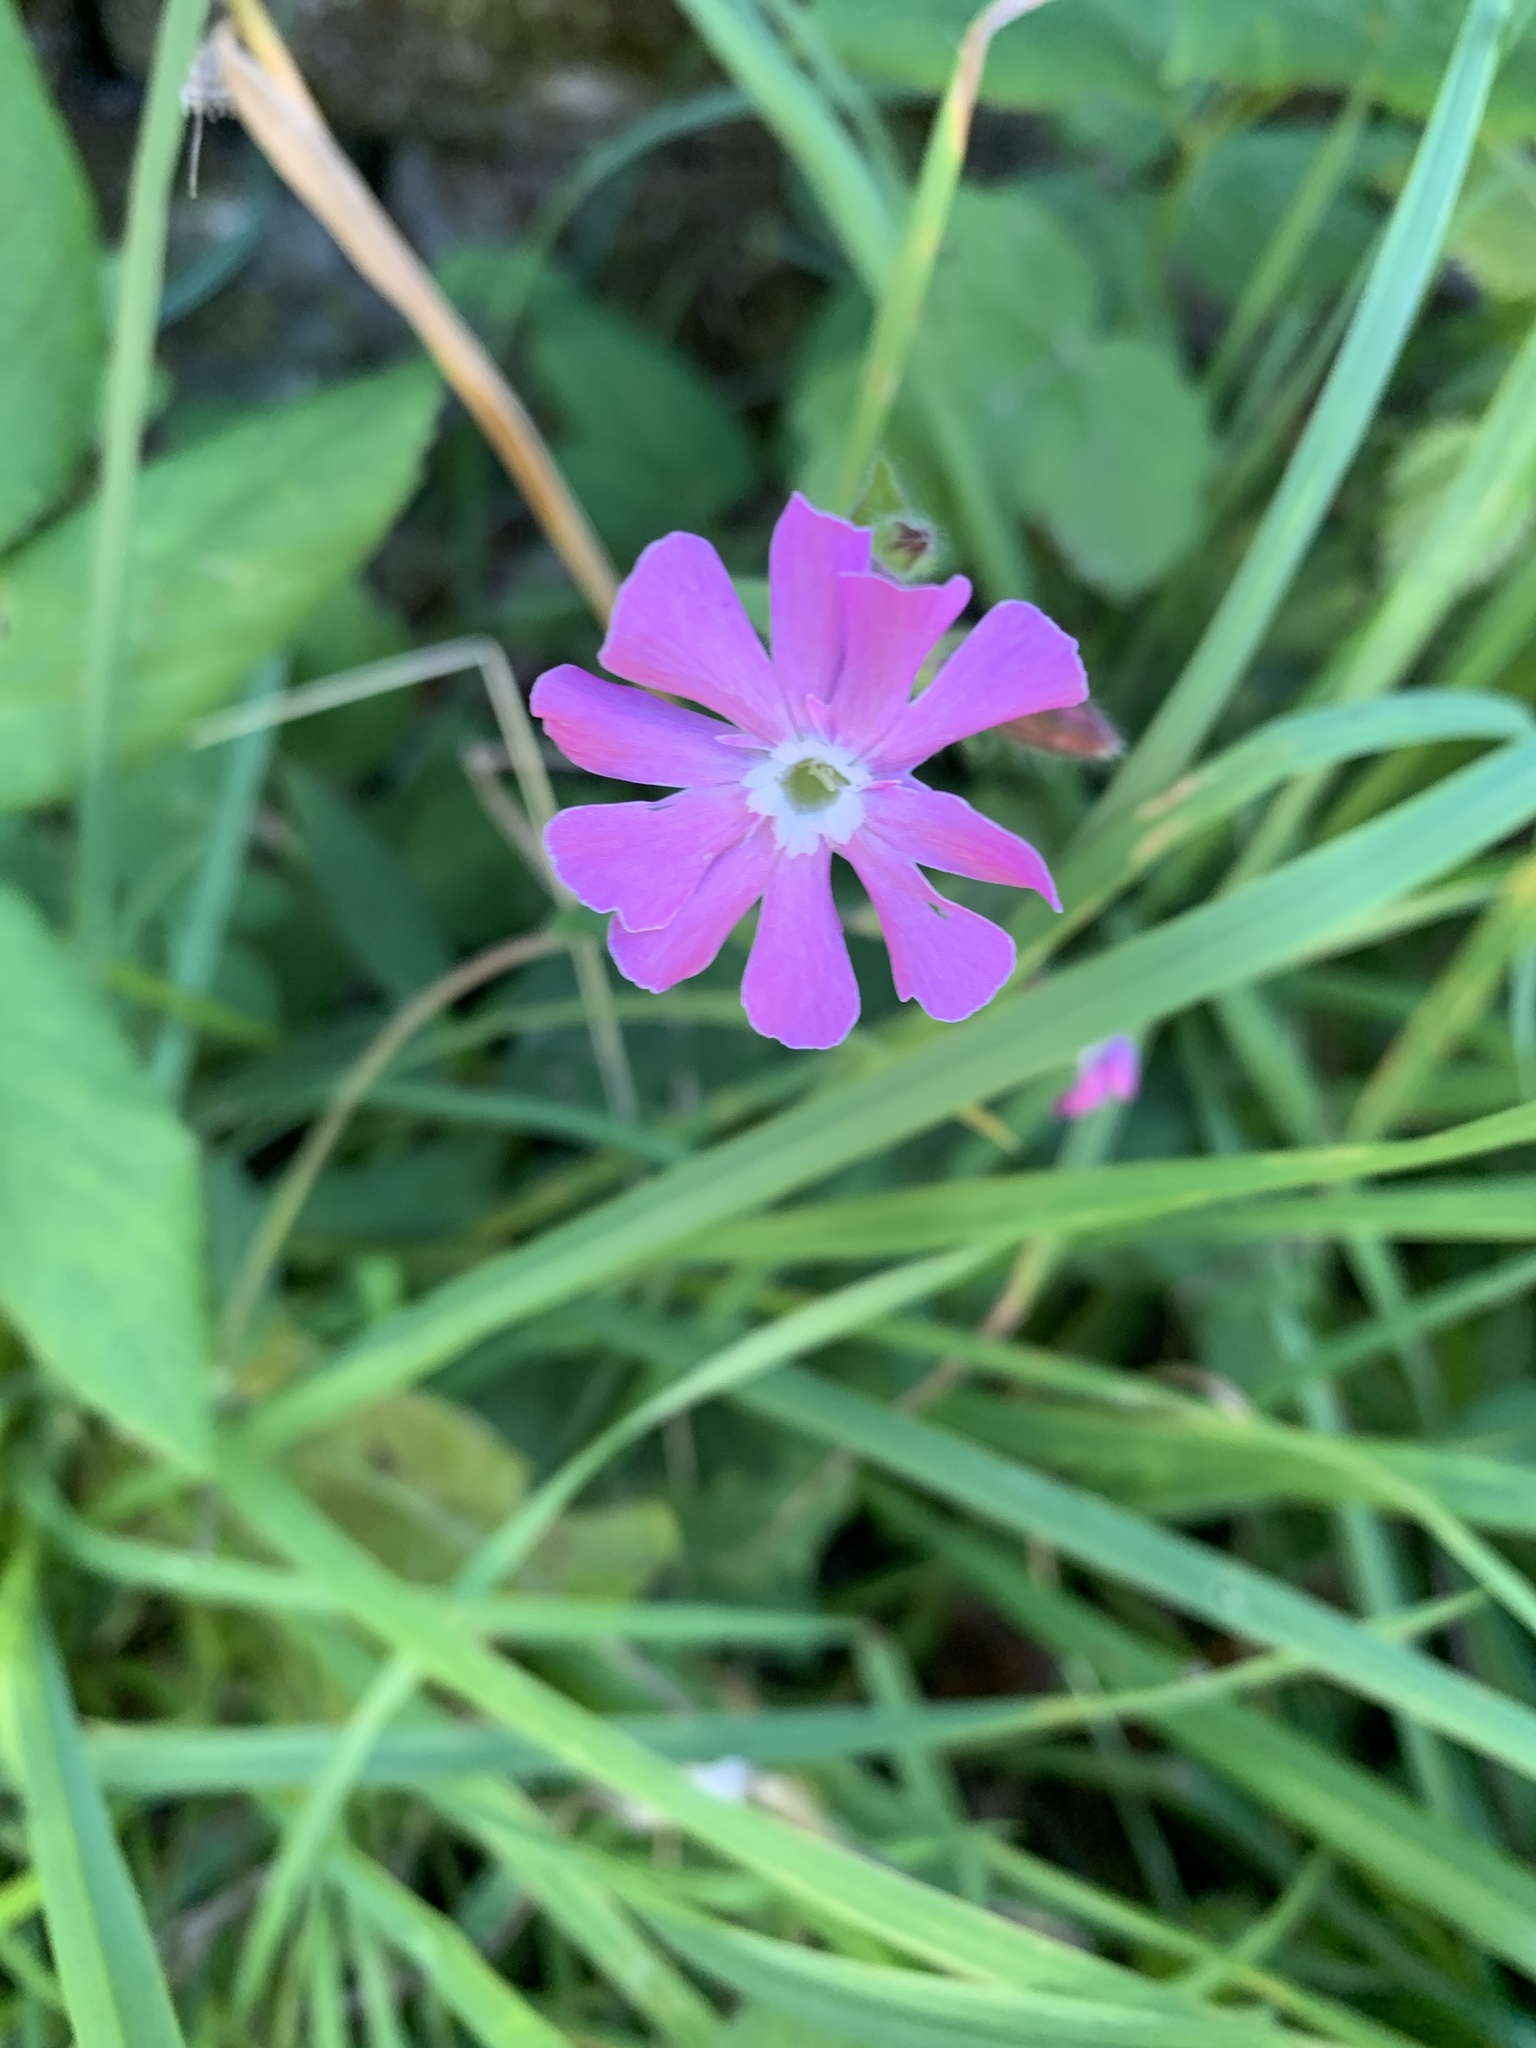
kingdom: Plantae
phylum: Tracheophyta
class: Magnoliopsida
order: Caryophyllales
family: Caryophyllaceae
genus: Silene
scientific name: Silene dioica
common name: Red campion
